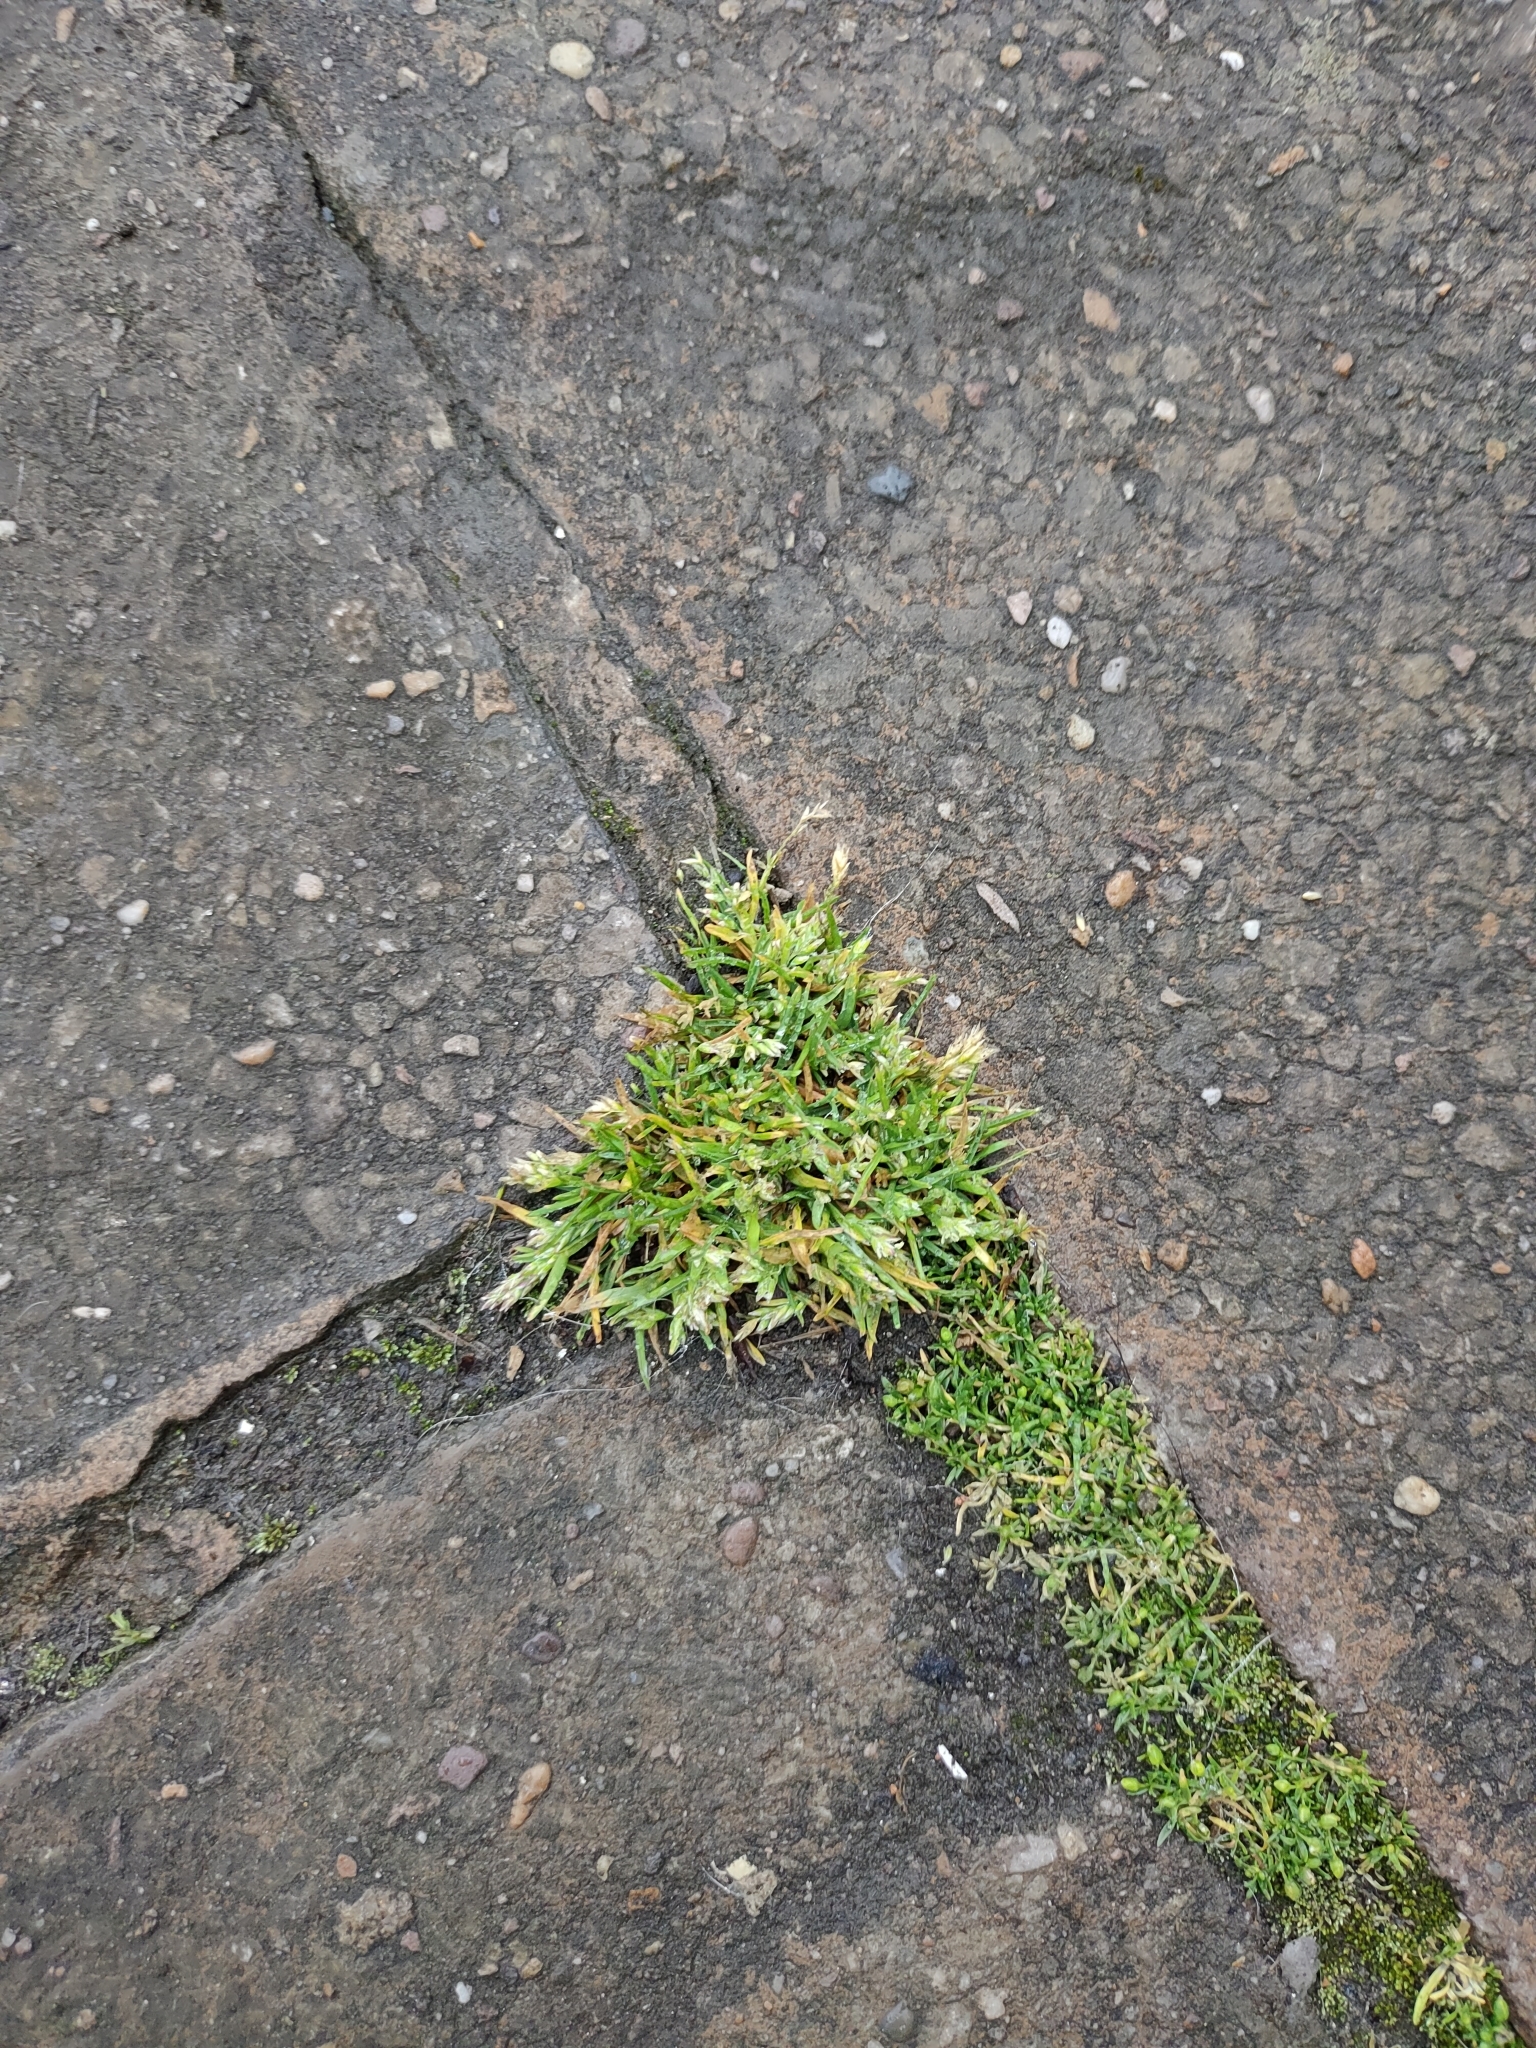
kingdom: Plantae
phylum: Tracheophyta
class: Liliopsida
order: Poales
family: Poaceae
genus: Poa
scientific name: Poa annua
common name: Annual bluegrass
